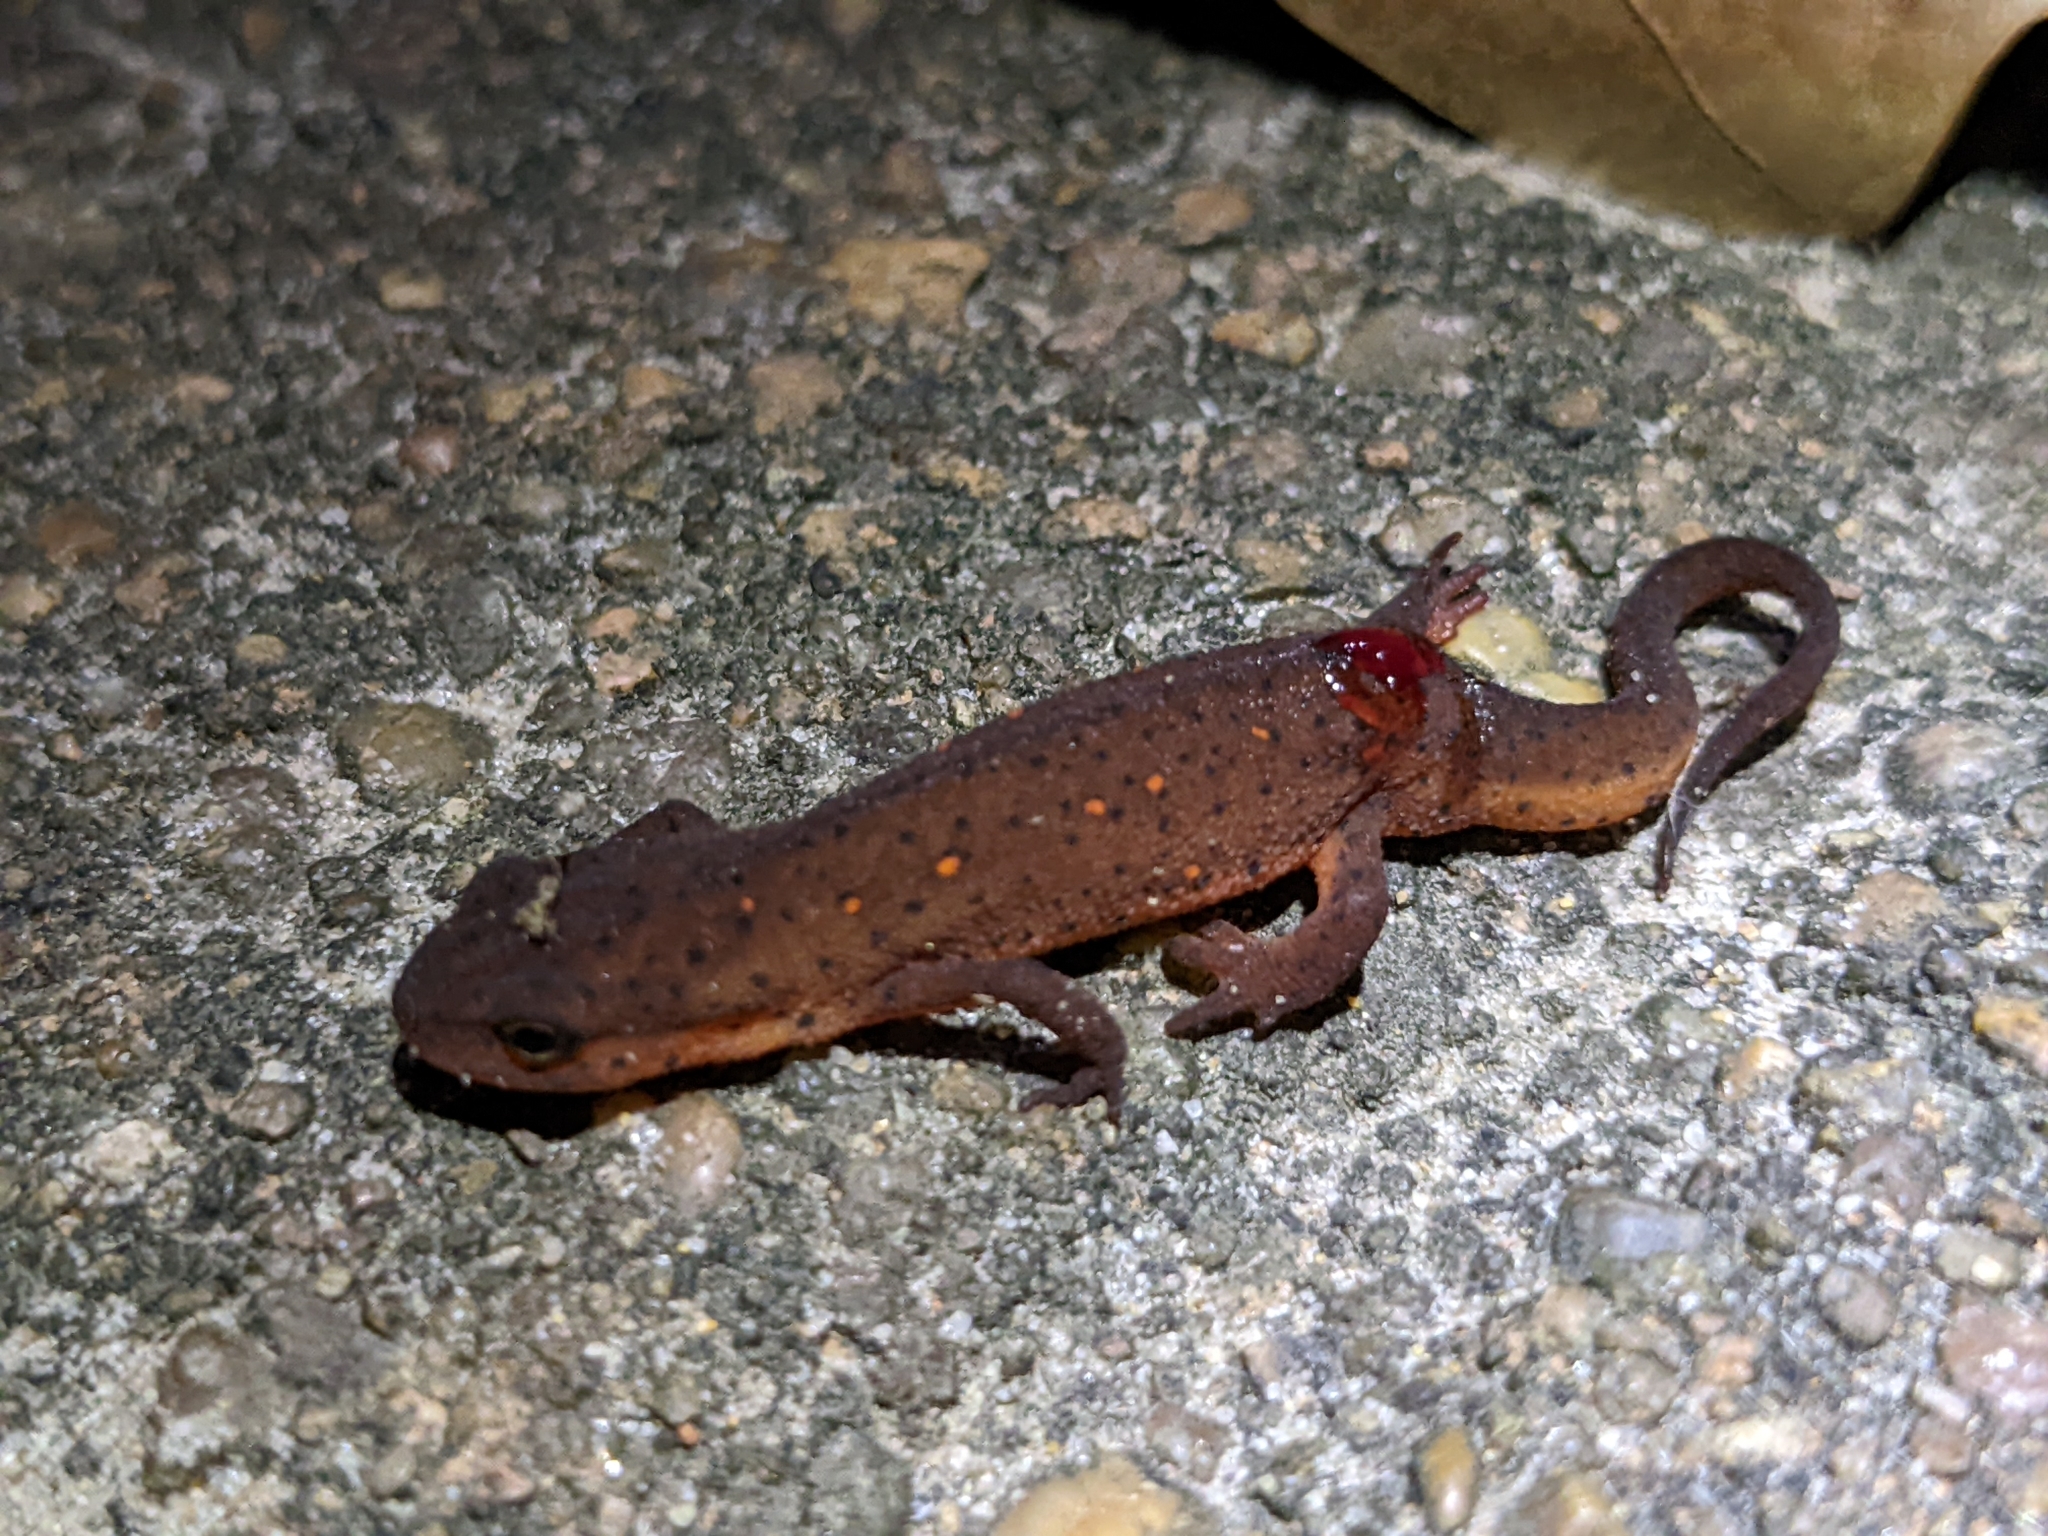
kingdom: Animalia
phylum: Chordata
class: Amphibia
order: Caudata
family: Salamandridae
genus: Notophthalmus
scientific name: Notophthalmus viridescens
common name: Eastern newt
